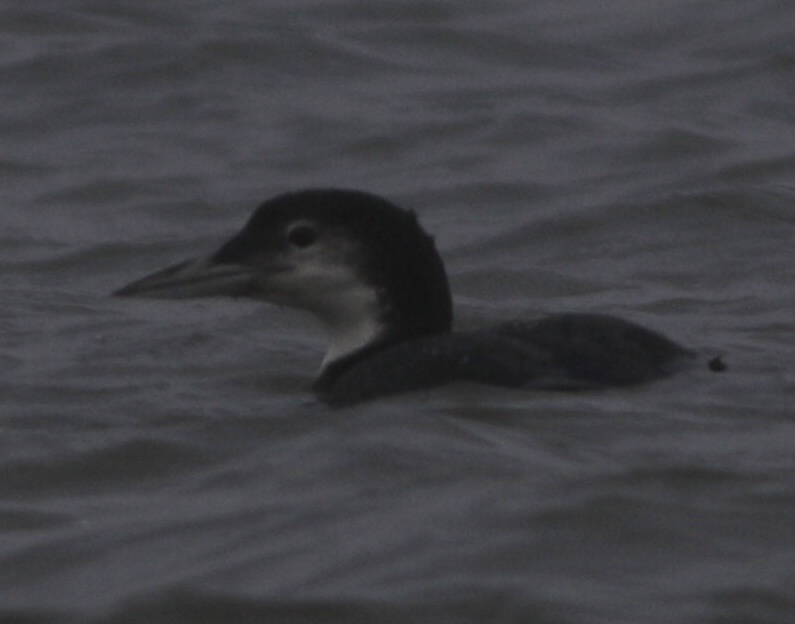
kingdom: Animalia
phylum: Chordata
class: Aves
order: Gaviiformes
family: Gaviidae
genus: Gavia
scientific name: Gavia immer
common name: Common loon
